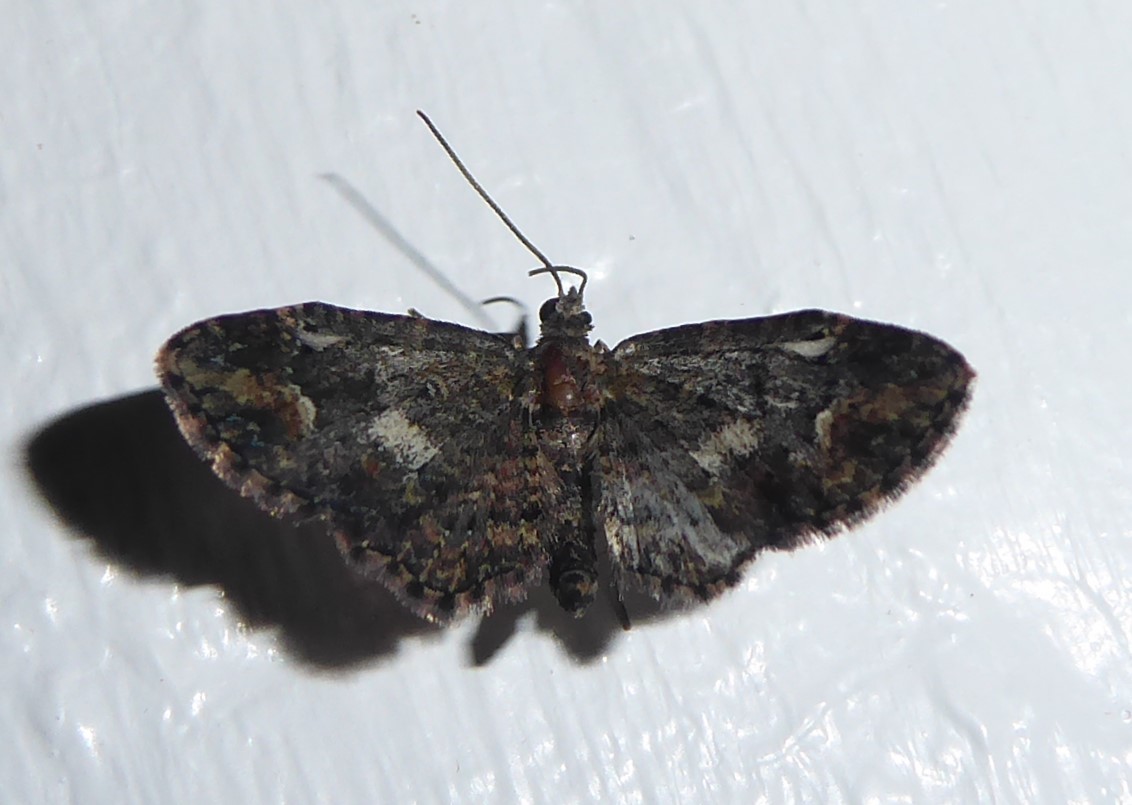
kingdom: Animalia
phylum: Arthropoda
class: Insecta
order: Lepidoptera
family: Geometridae
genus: Pasiphilodes
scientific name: Pasiphilodes testulata
